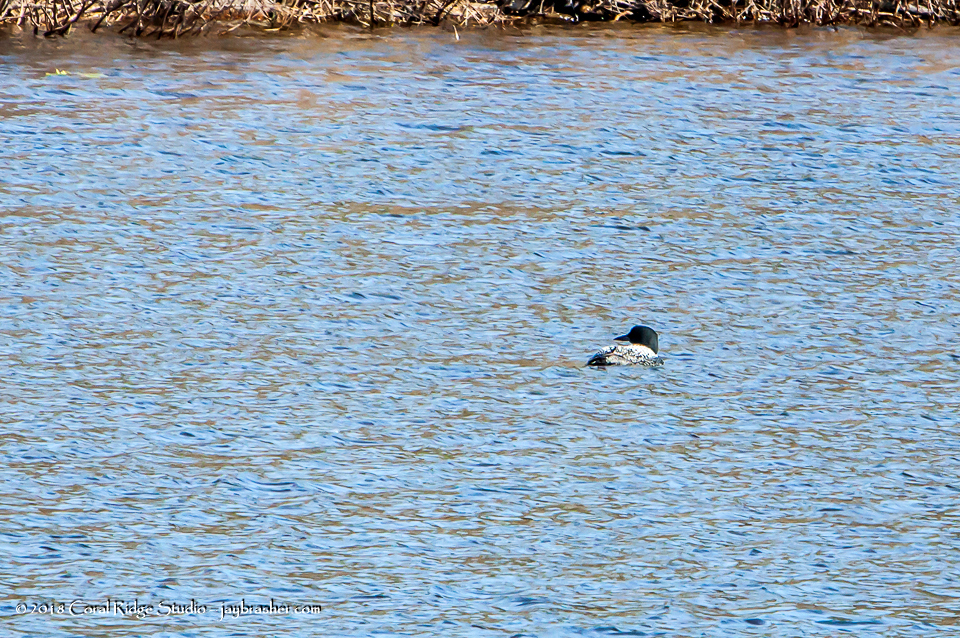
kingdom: Animalia
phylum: Chordata
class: Aves
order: Gaviiformes
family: Gaviidae
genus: Gavia
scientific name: Gavia immer
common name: Common loon
